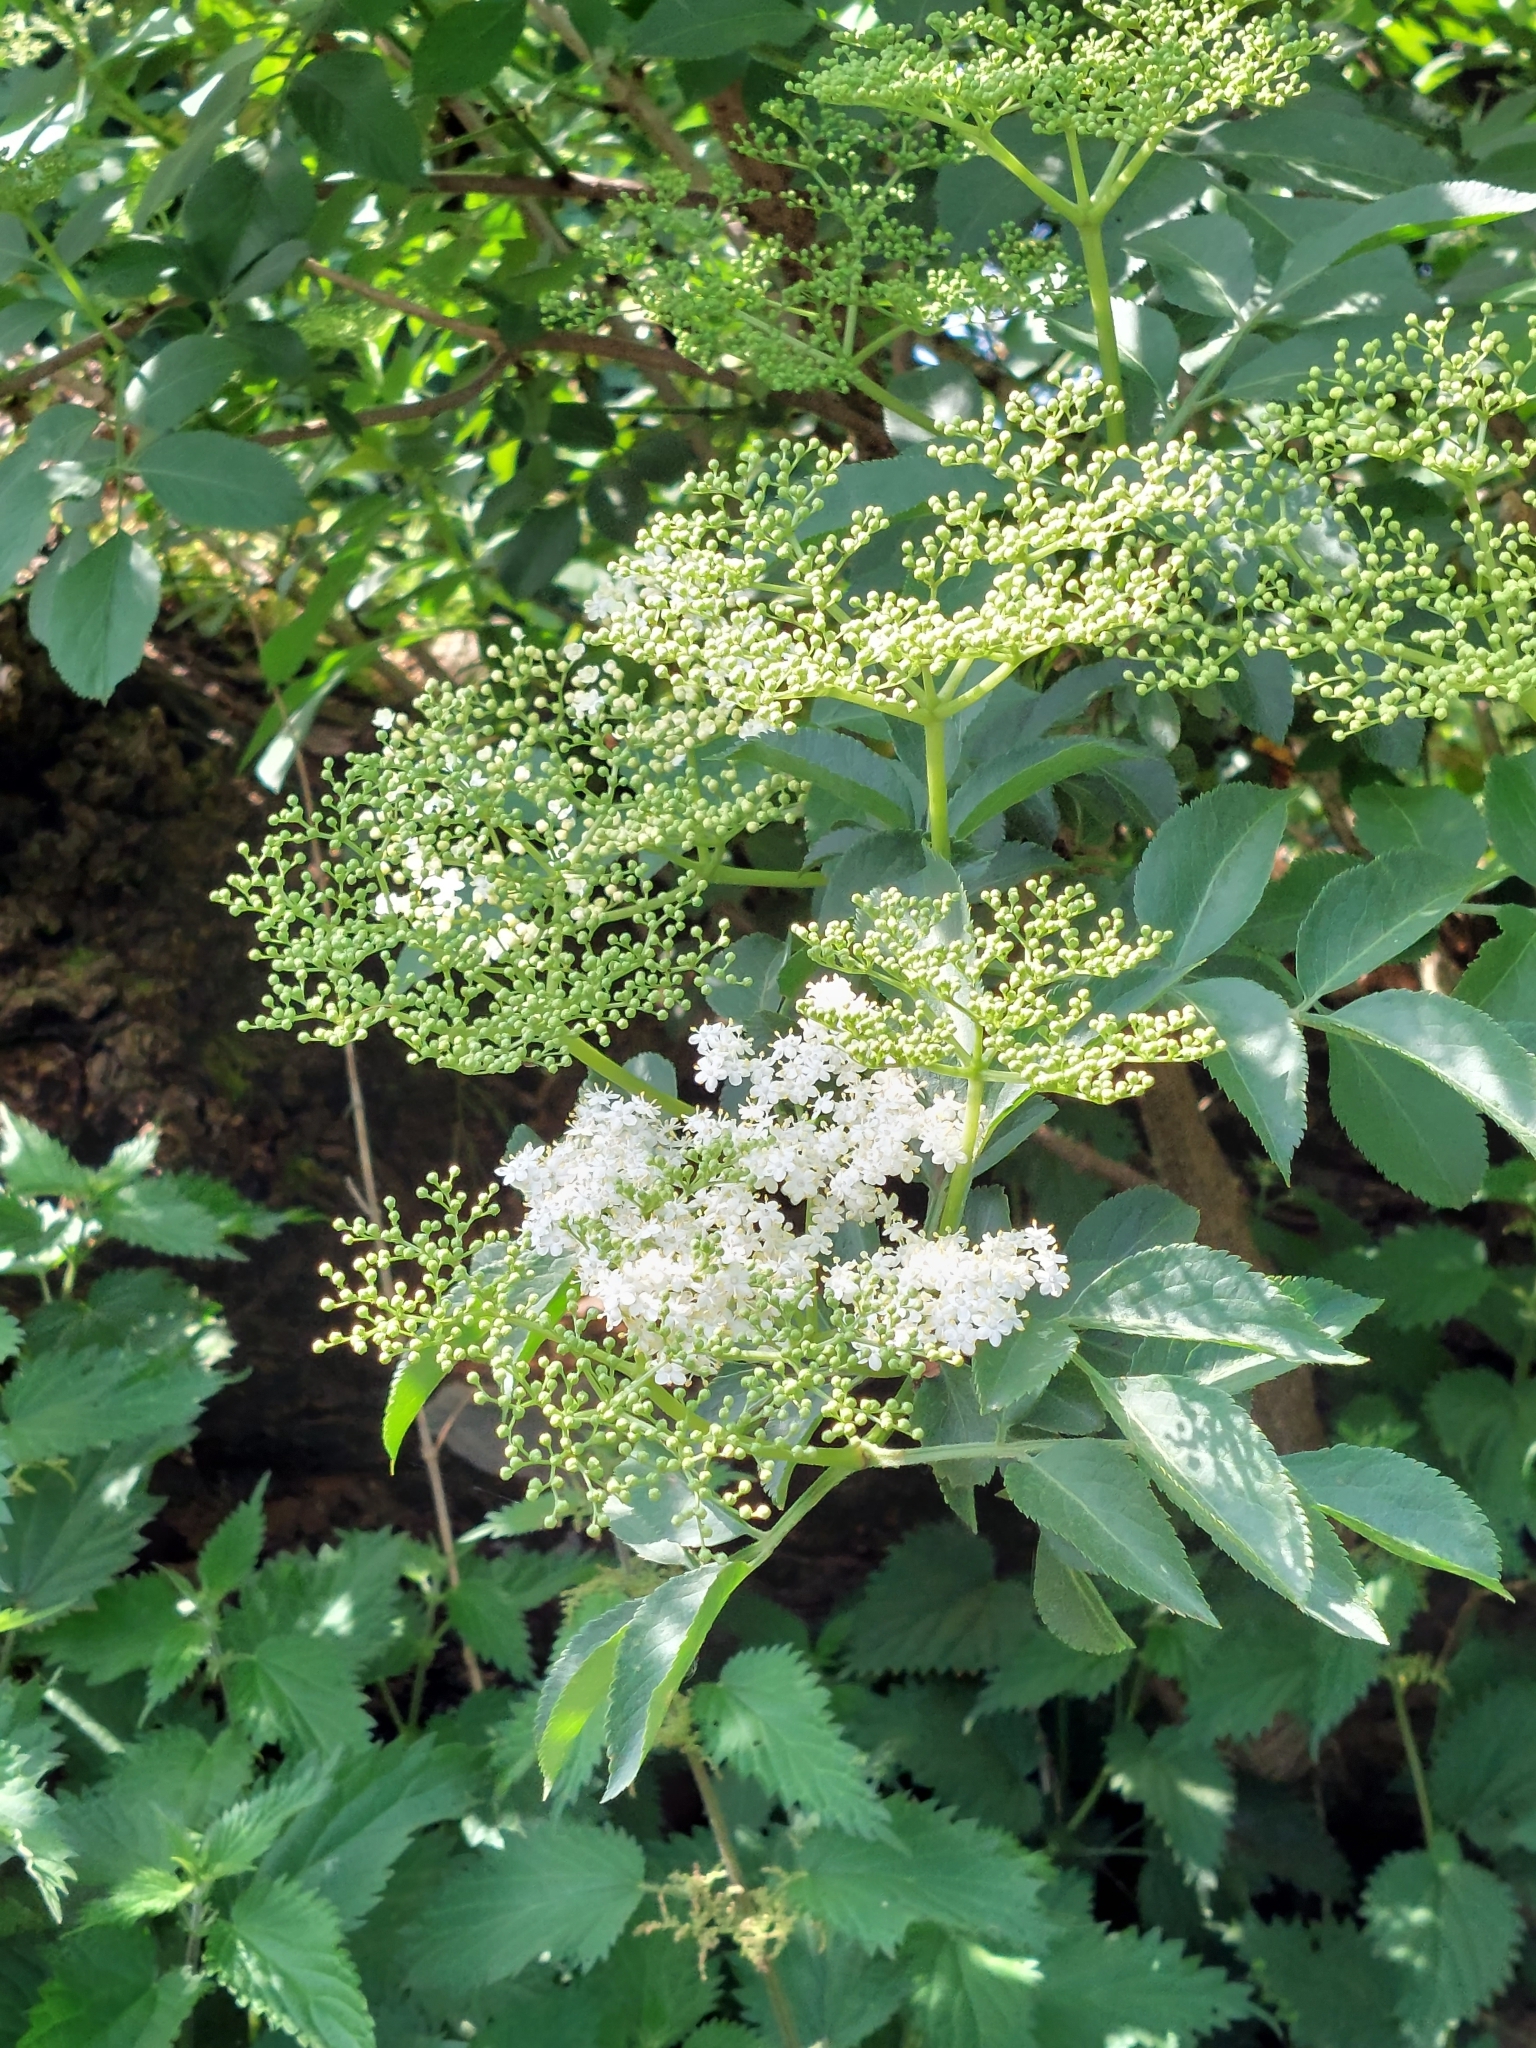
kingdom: Plantae
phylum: Tracheophyta
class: Magnoliopsida
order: Dipsacales
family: Viburnaceae
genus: Sambucus
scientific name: Sambucus nigra
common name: Elder
